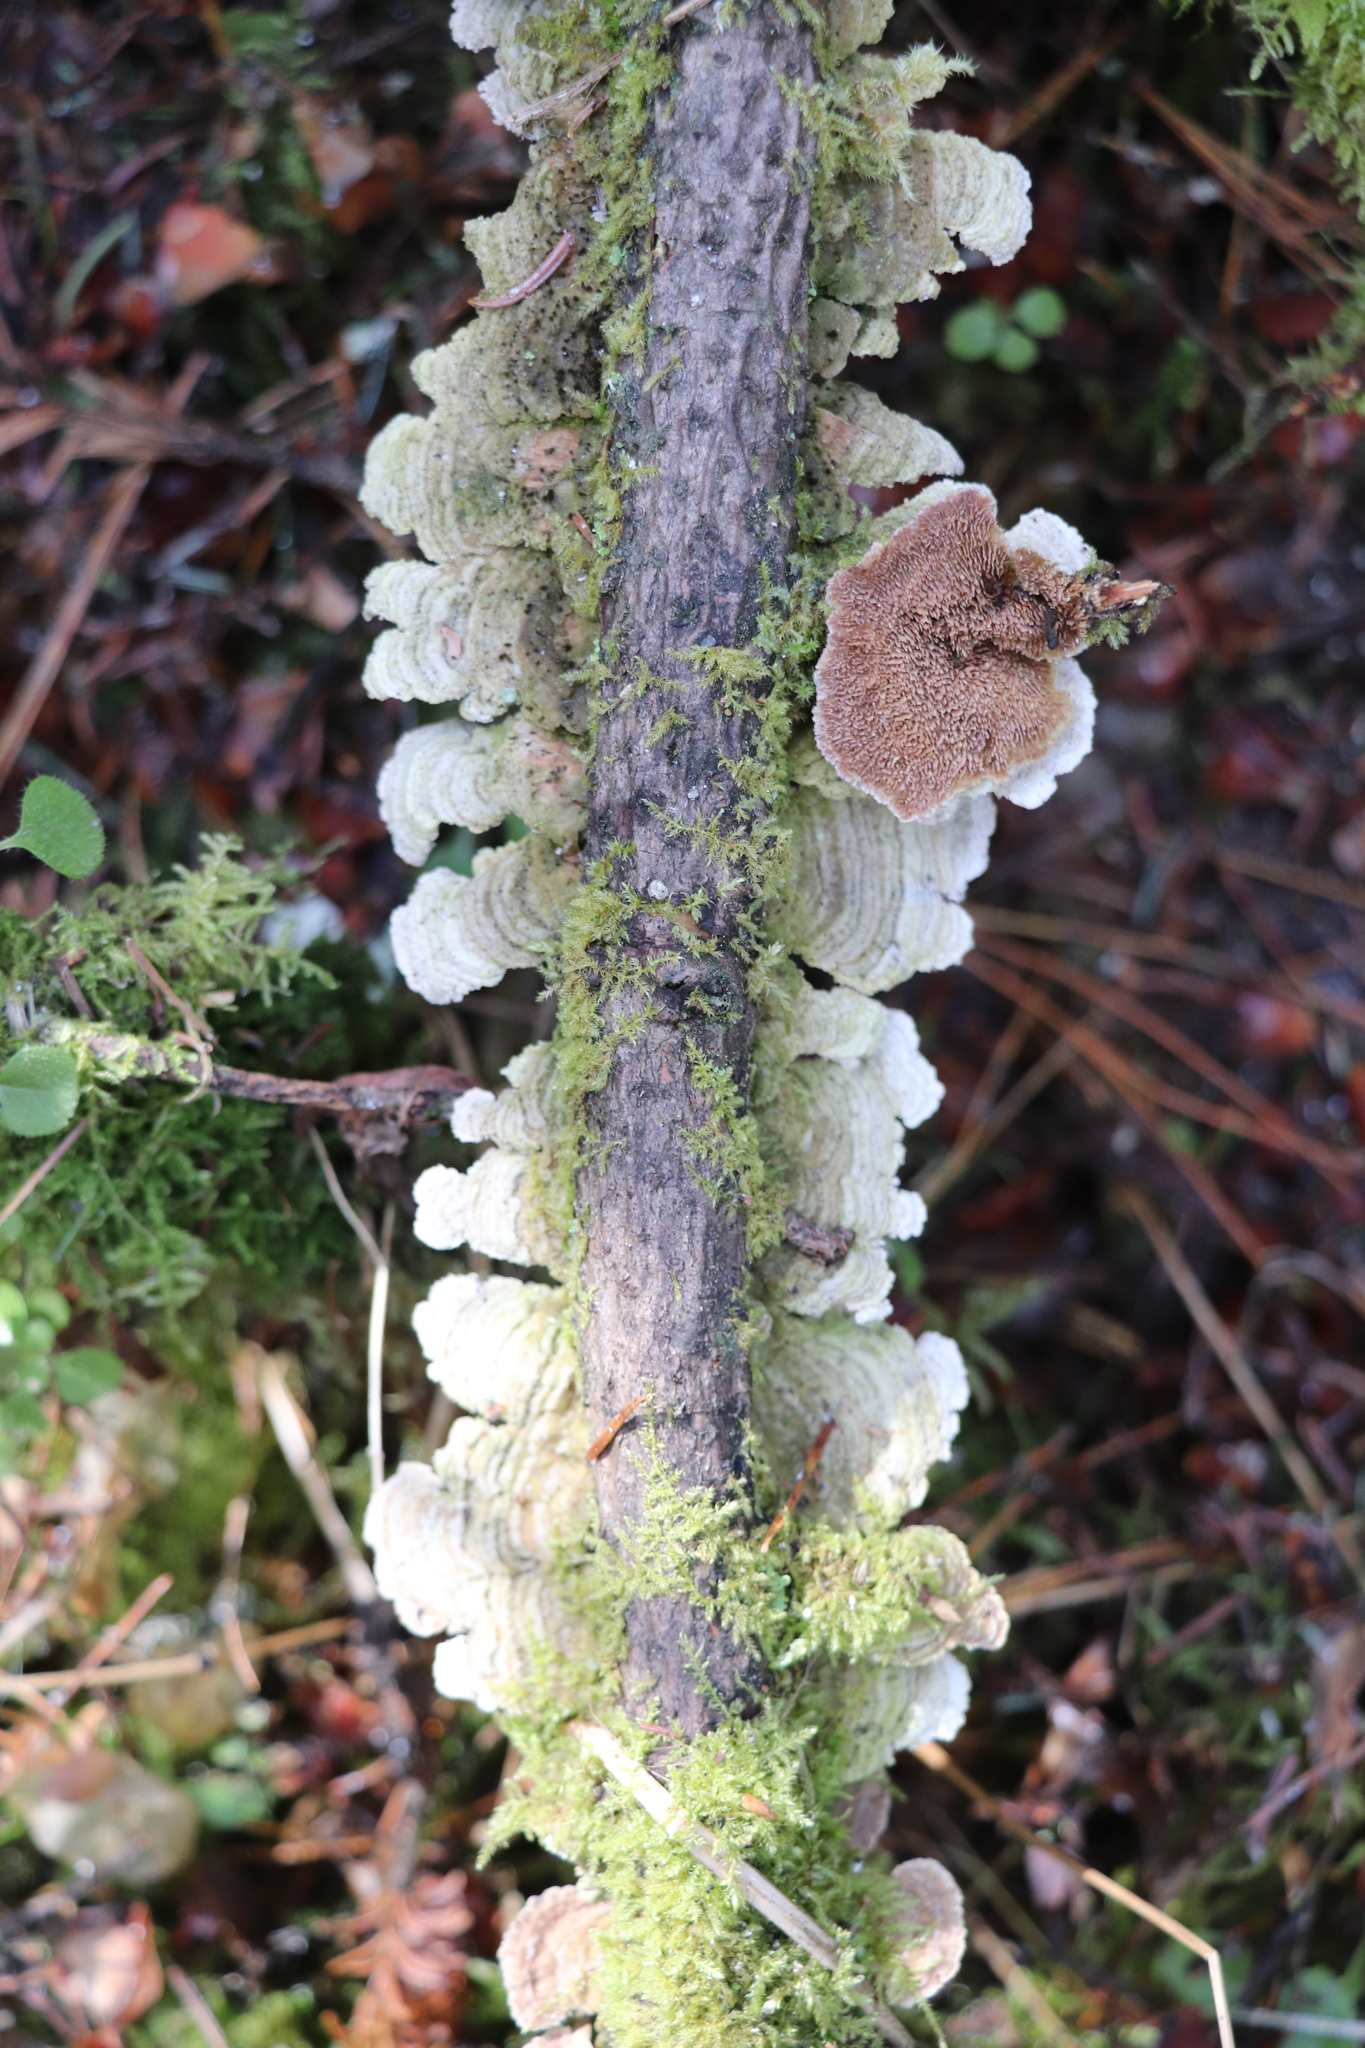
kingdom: Fungi
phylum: Basidiomycota
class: Agaricomycetes
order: Hymenochaetales
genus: Trichaptum
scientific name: Trichaptum fuscoviolaceum
